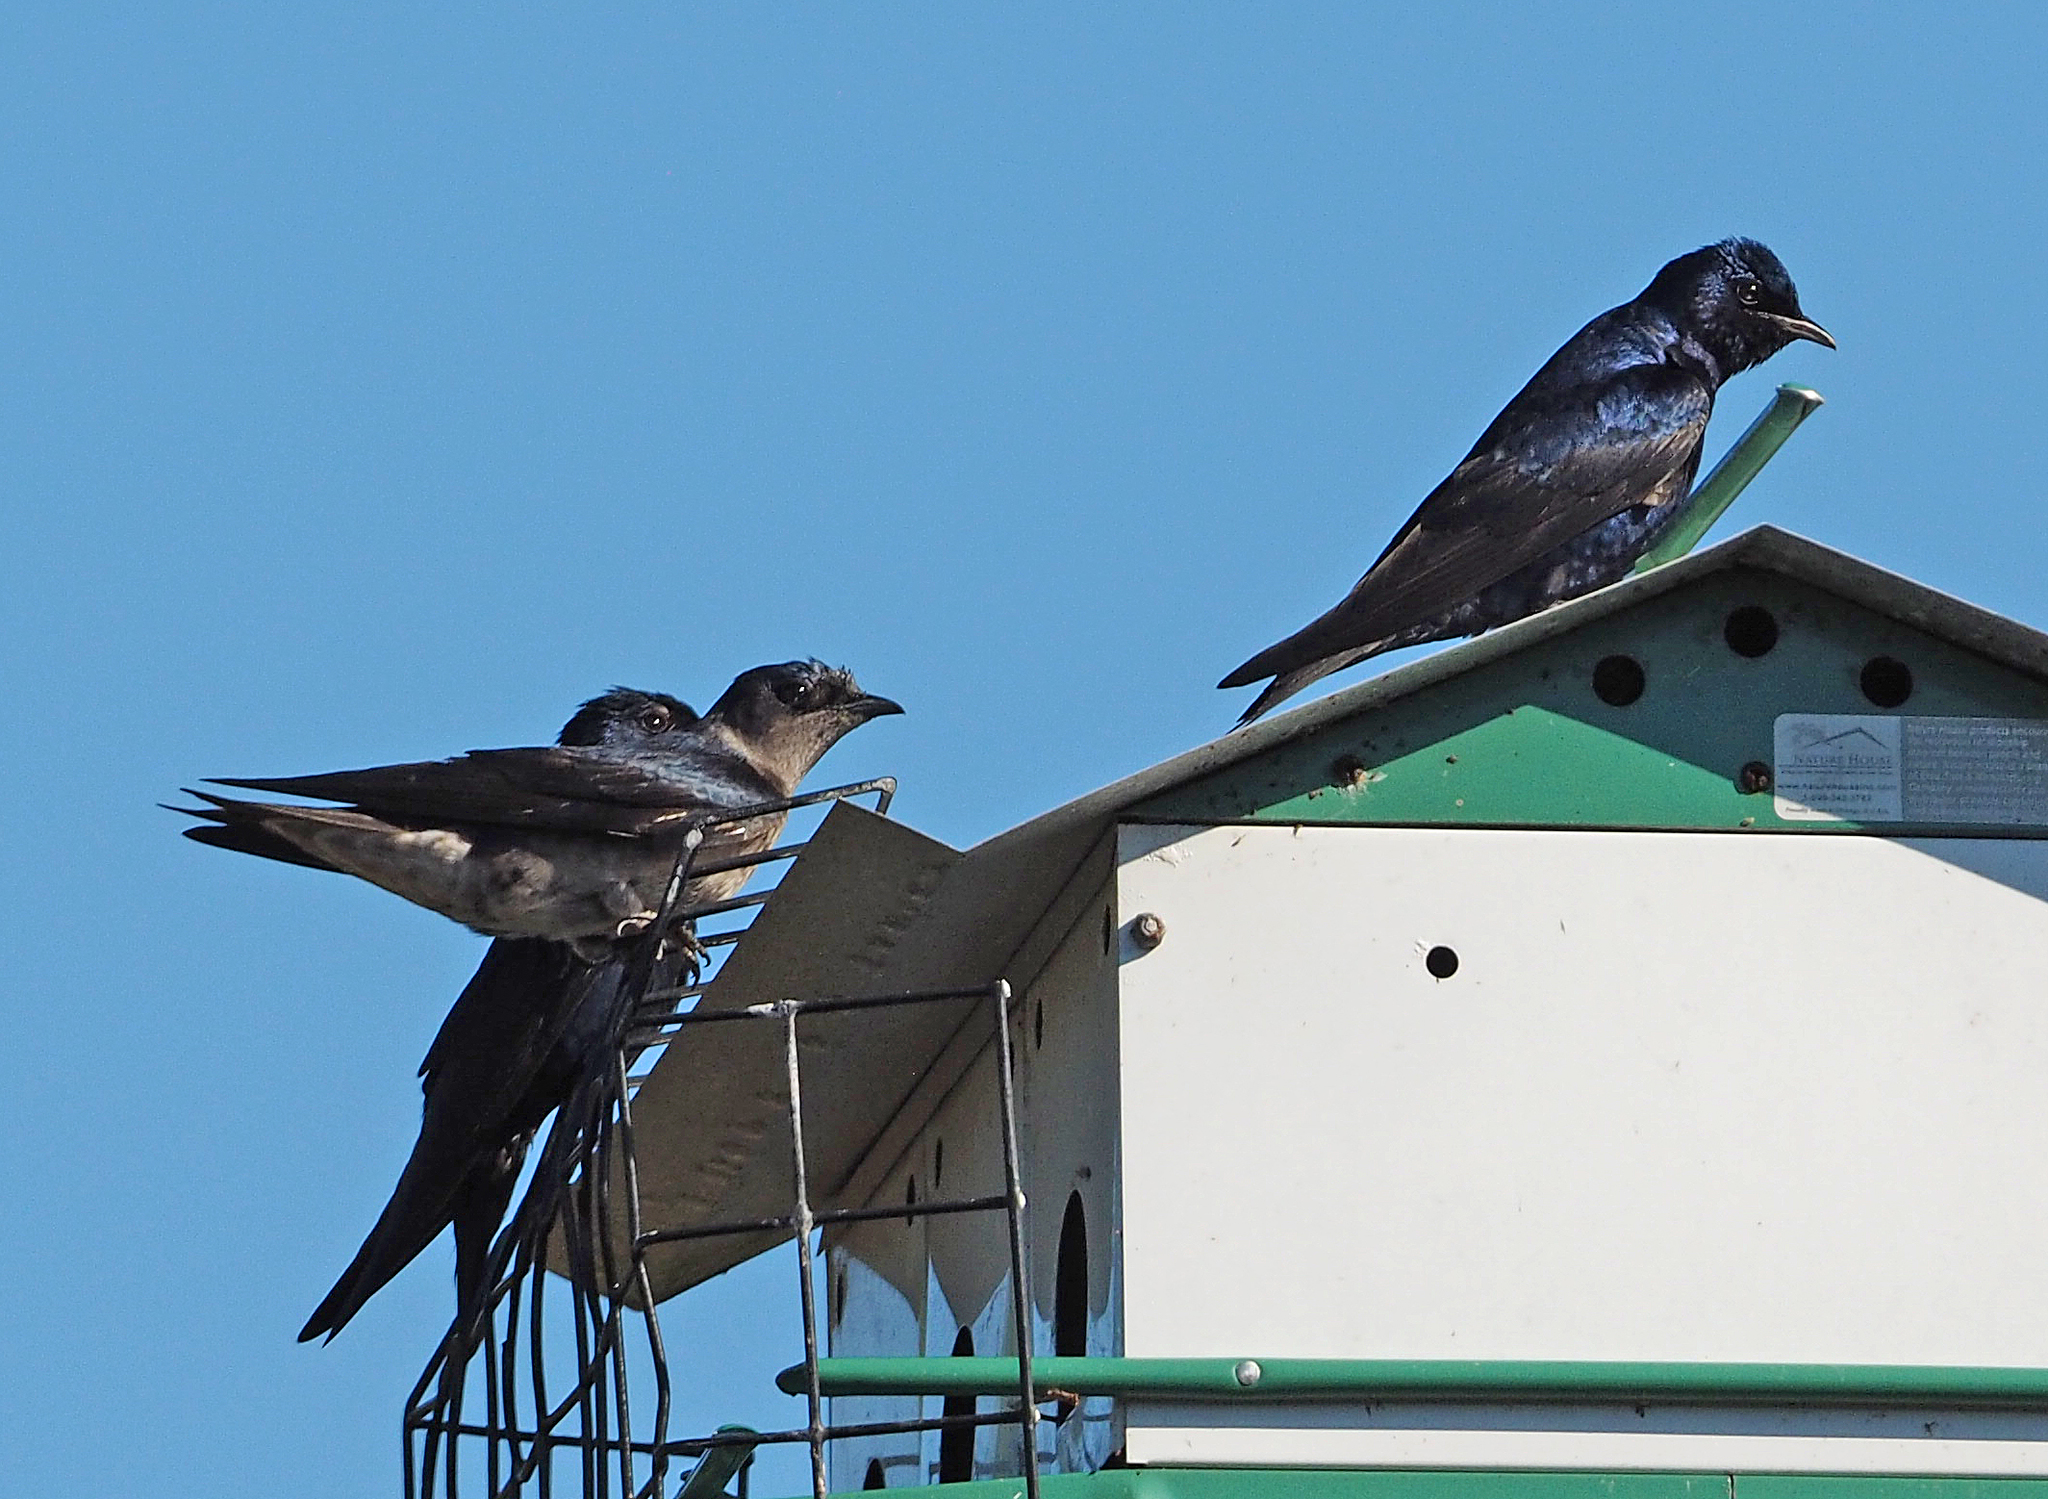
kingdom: Animalia
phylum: Chordata
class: Aves
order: Passeriformes
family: Hirundinidae
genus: Progne
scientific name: Progne subis
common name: Purple martin
